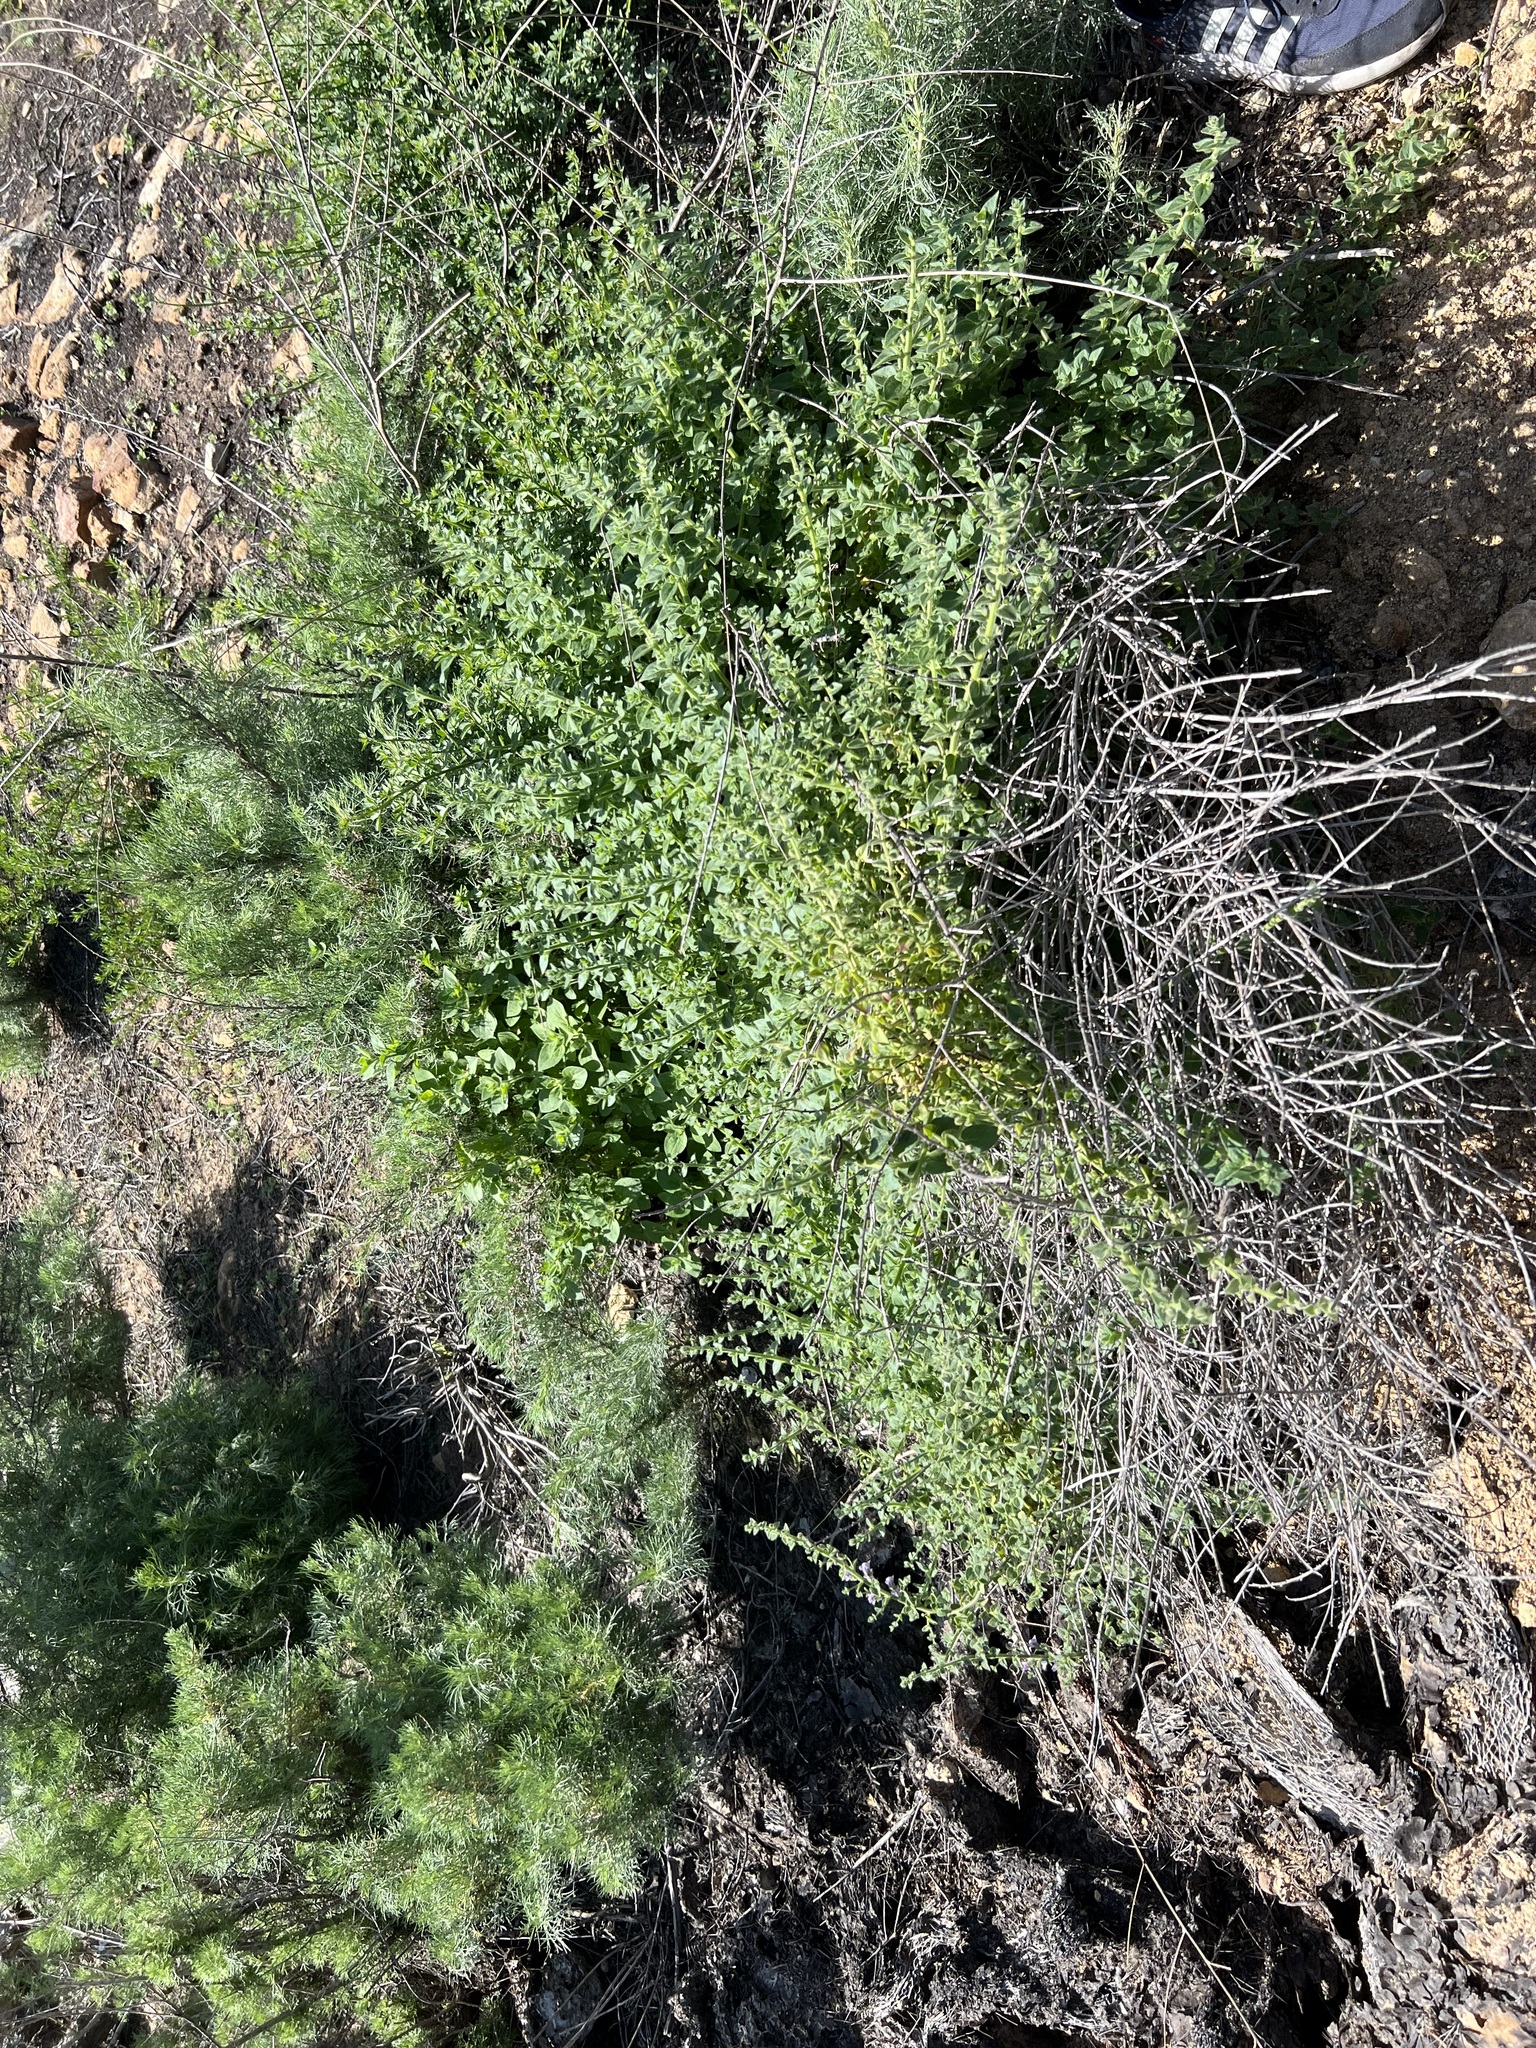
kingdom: Plantae
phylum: Tracheophyta
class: Magnoliopsida
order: Lamiales
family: Plantaginaceae
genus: Sairocarpus
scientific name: Sairocarpus nuttallianus
